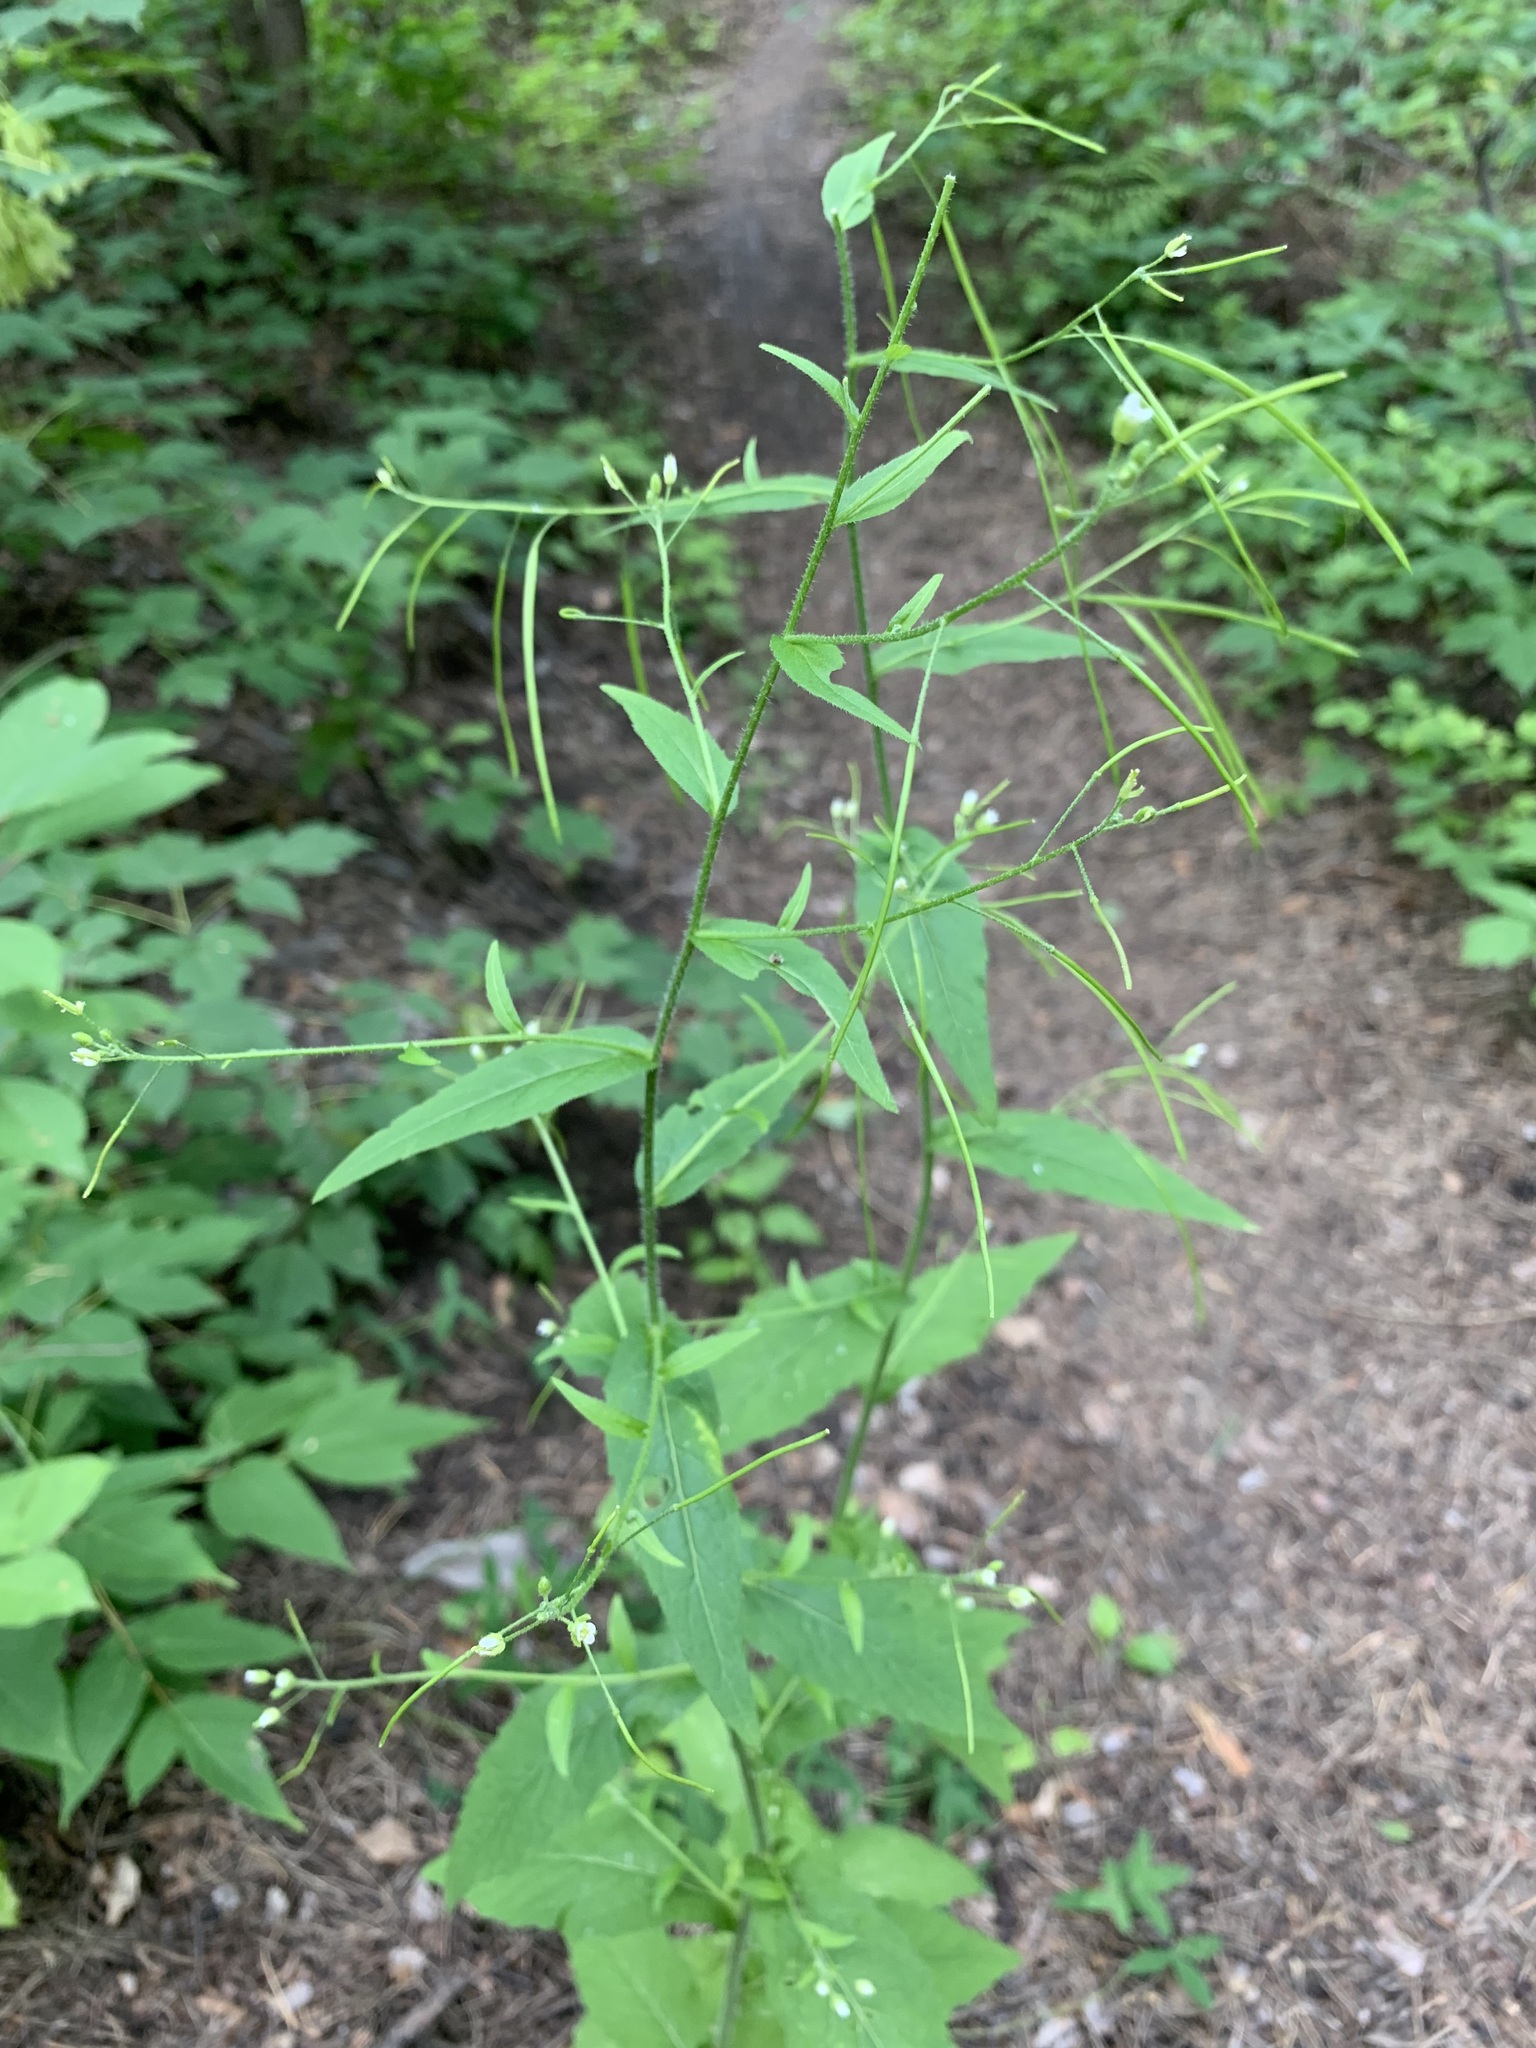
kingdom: Plantae
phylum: Tracheophyta
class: Magnoliopsida
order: Brassicales
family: Brassicaceae
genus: Catolobus
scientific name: Catolobus pendulus
